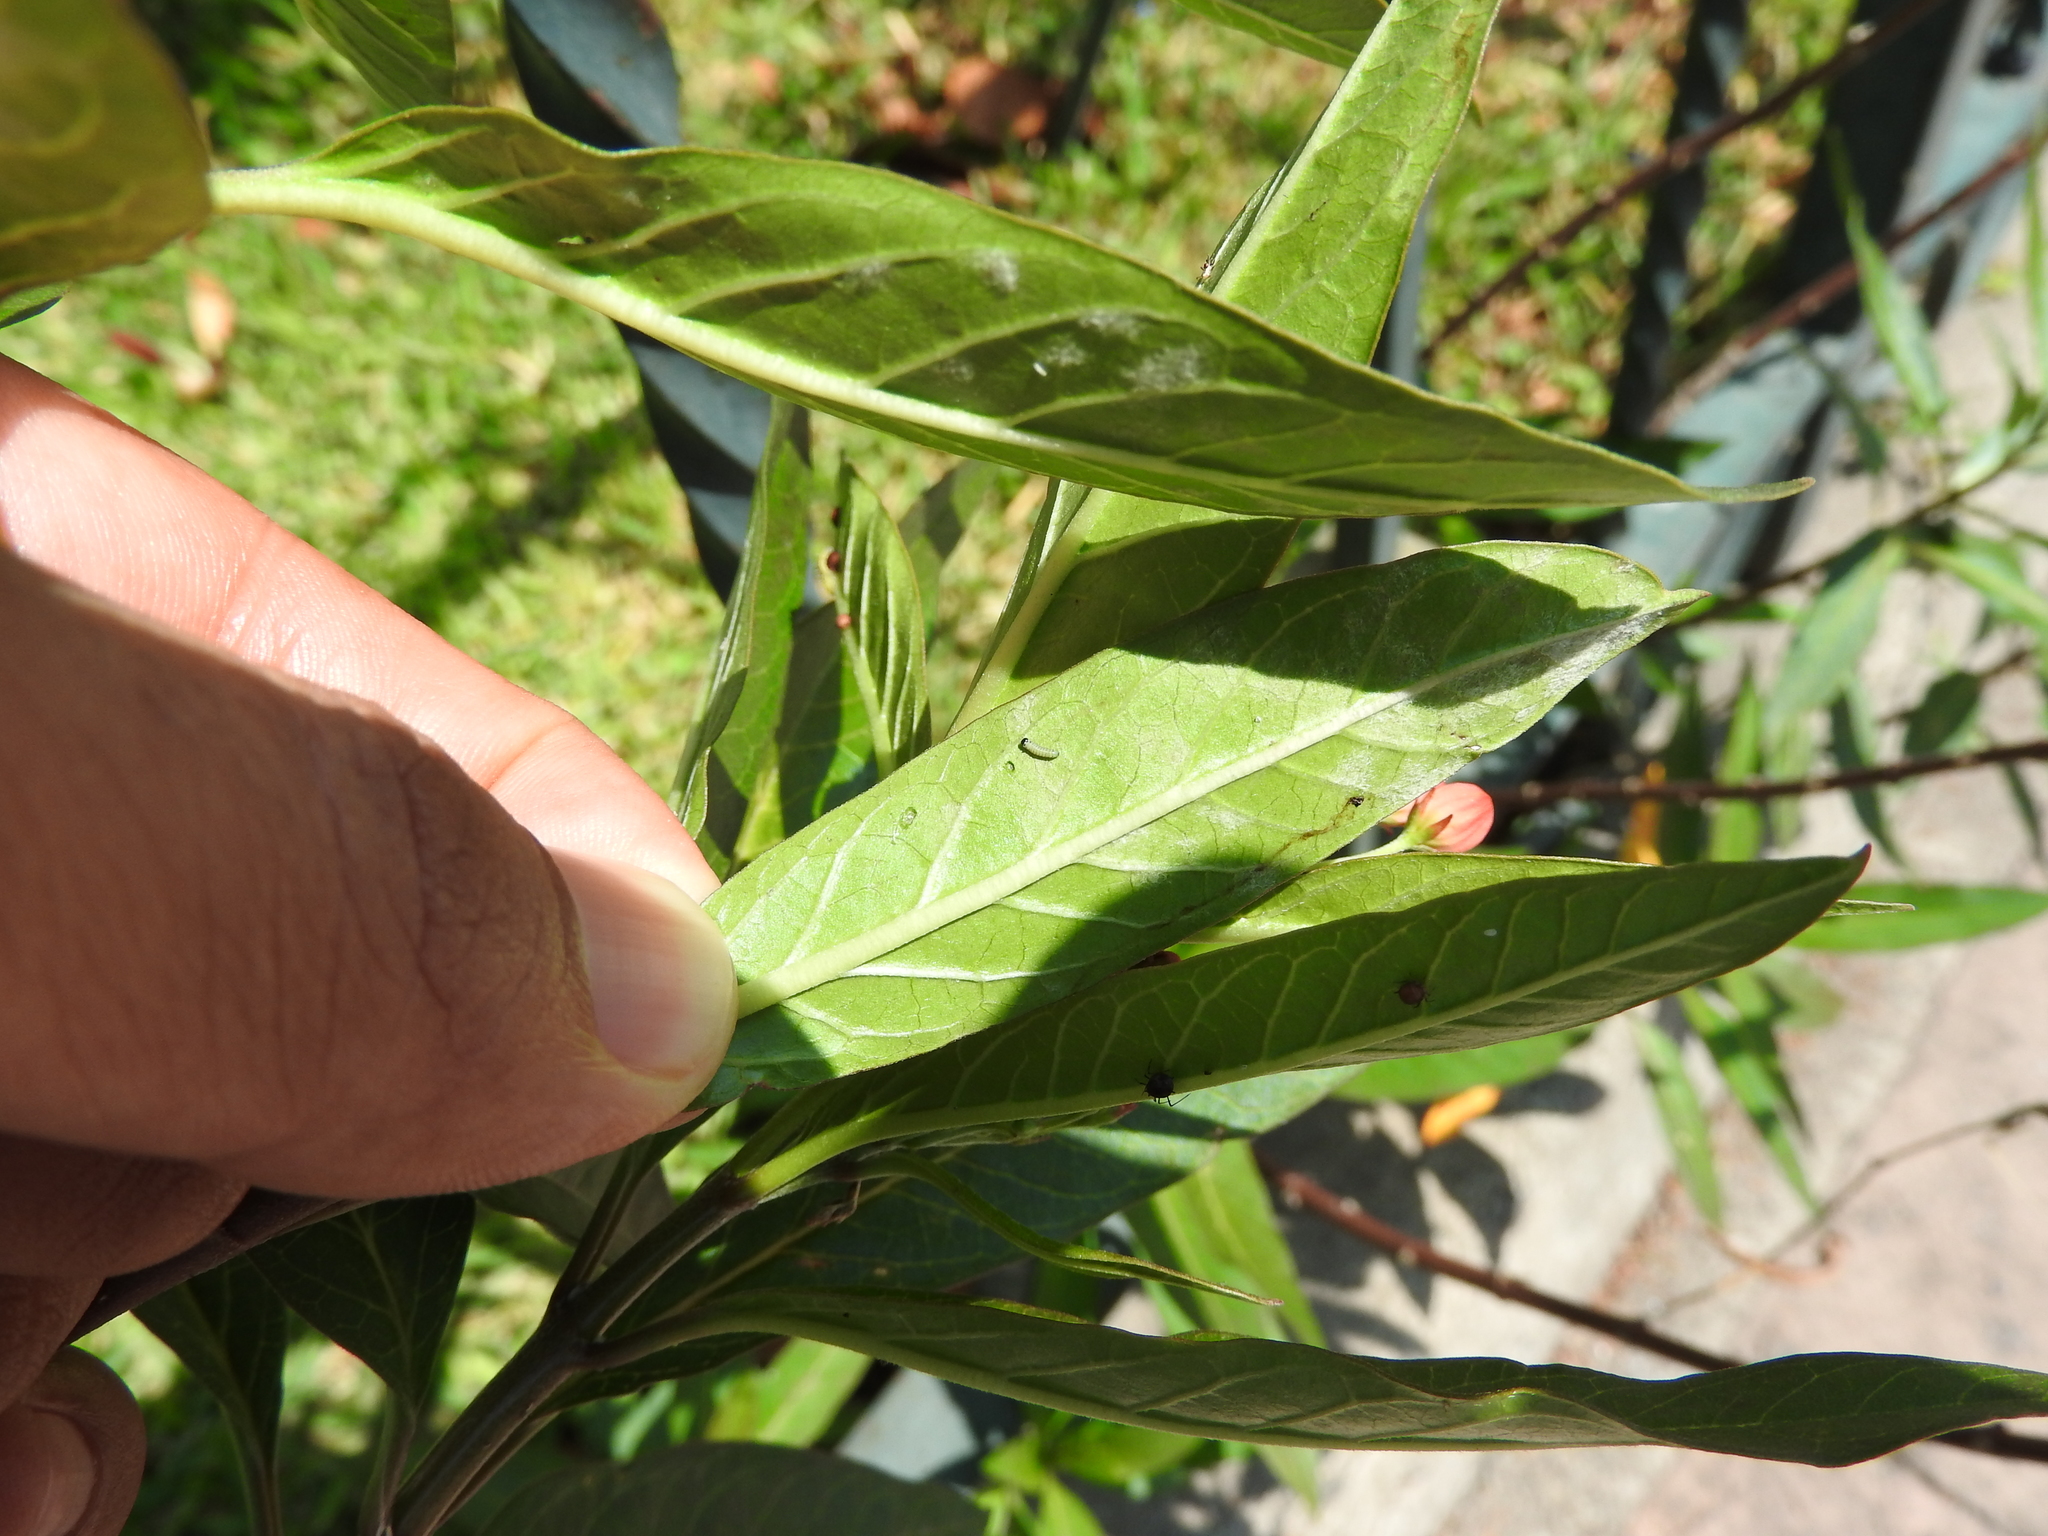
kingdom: Animalia
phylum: Arthropoda
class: Insecta
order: Lepidoptera
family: Nymphalidae
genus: Danaus
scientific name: Danaus plexippus
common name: Monarch
